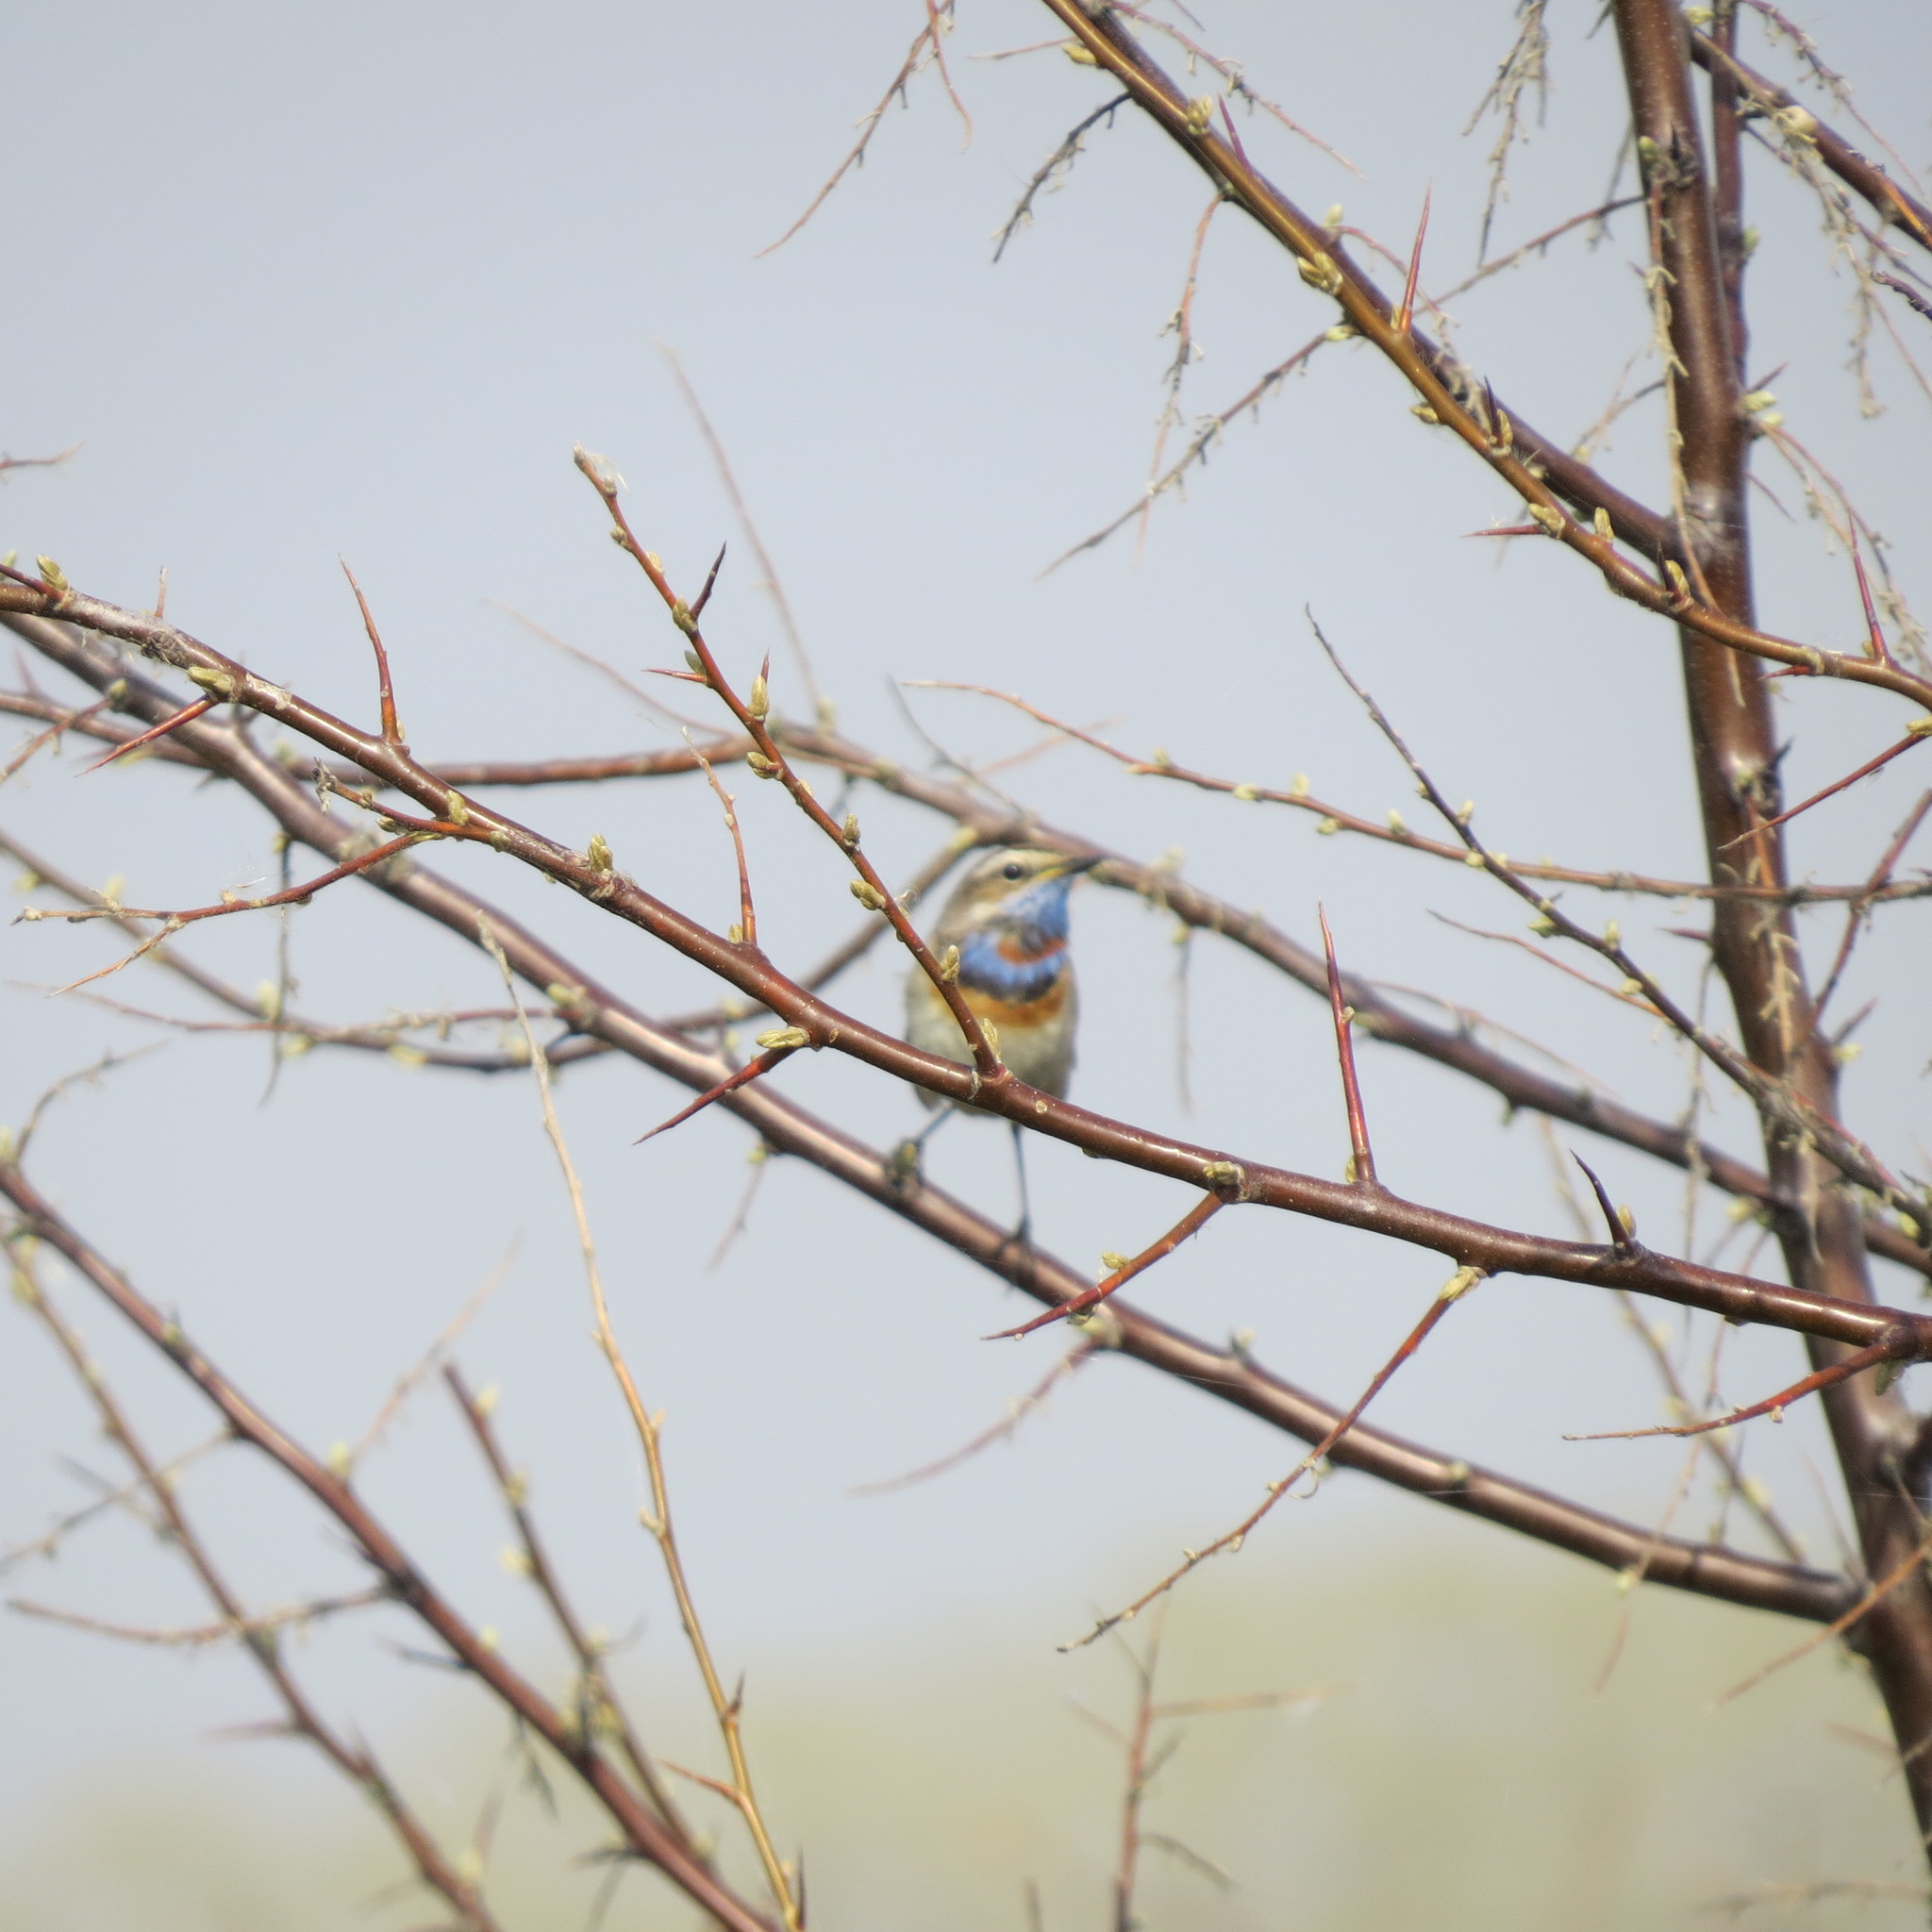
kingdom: Animalia
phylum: Chordata
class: Aves
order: Passeriformes
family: Muscicapidae
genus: Luscinia
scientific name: Luscinia svecica
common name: Bluethroat
